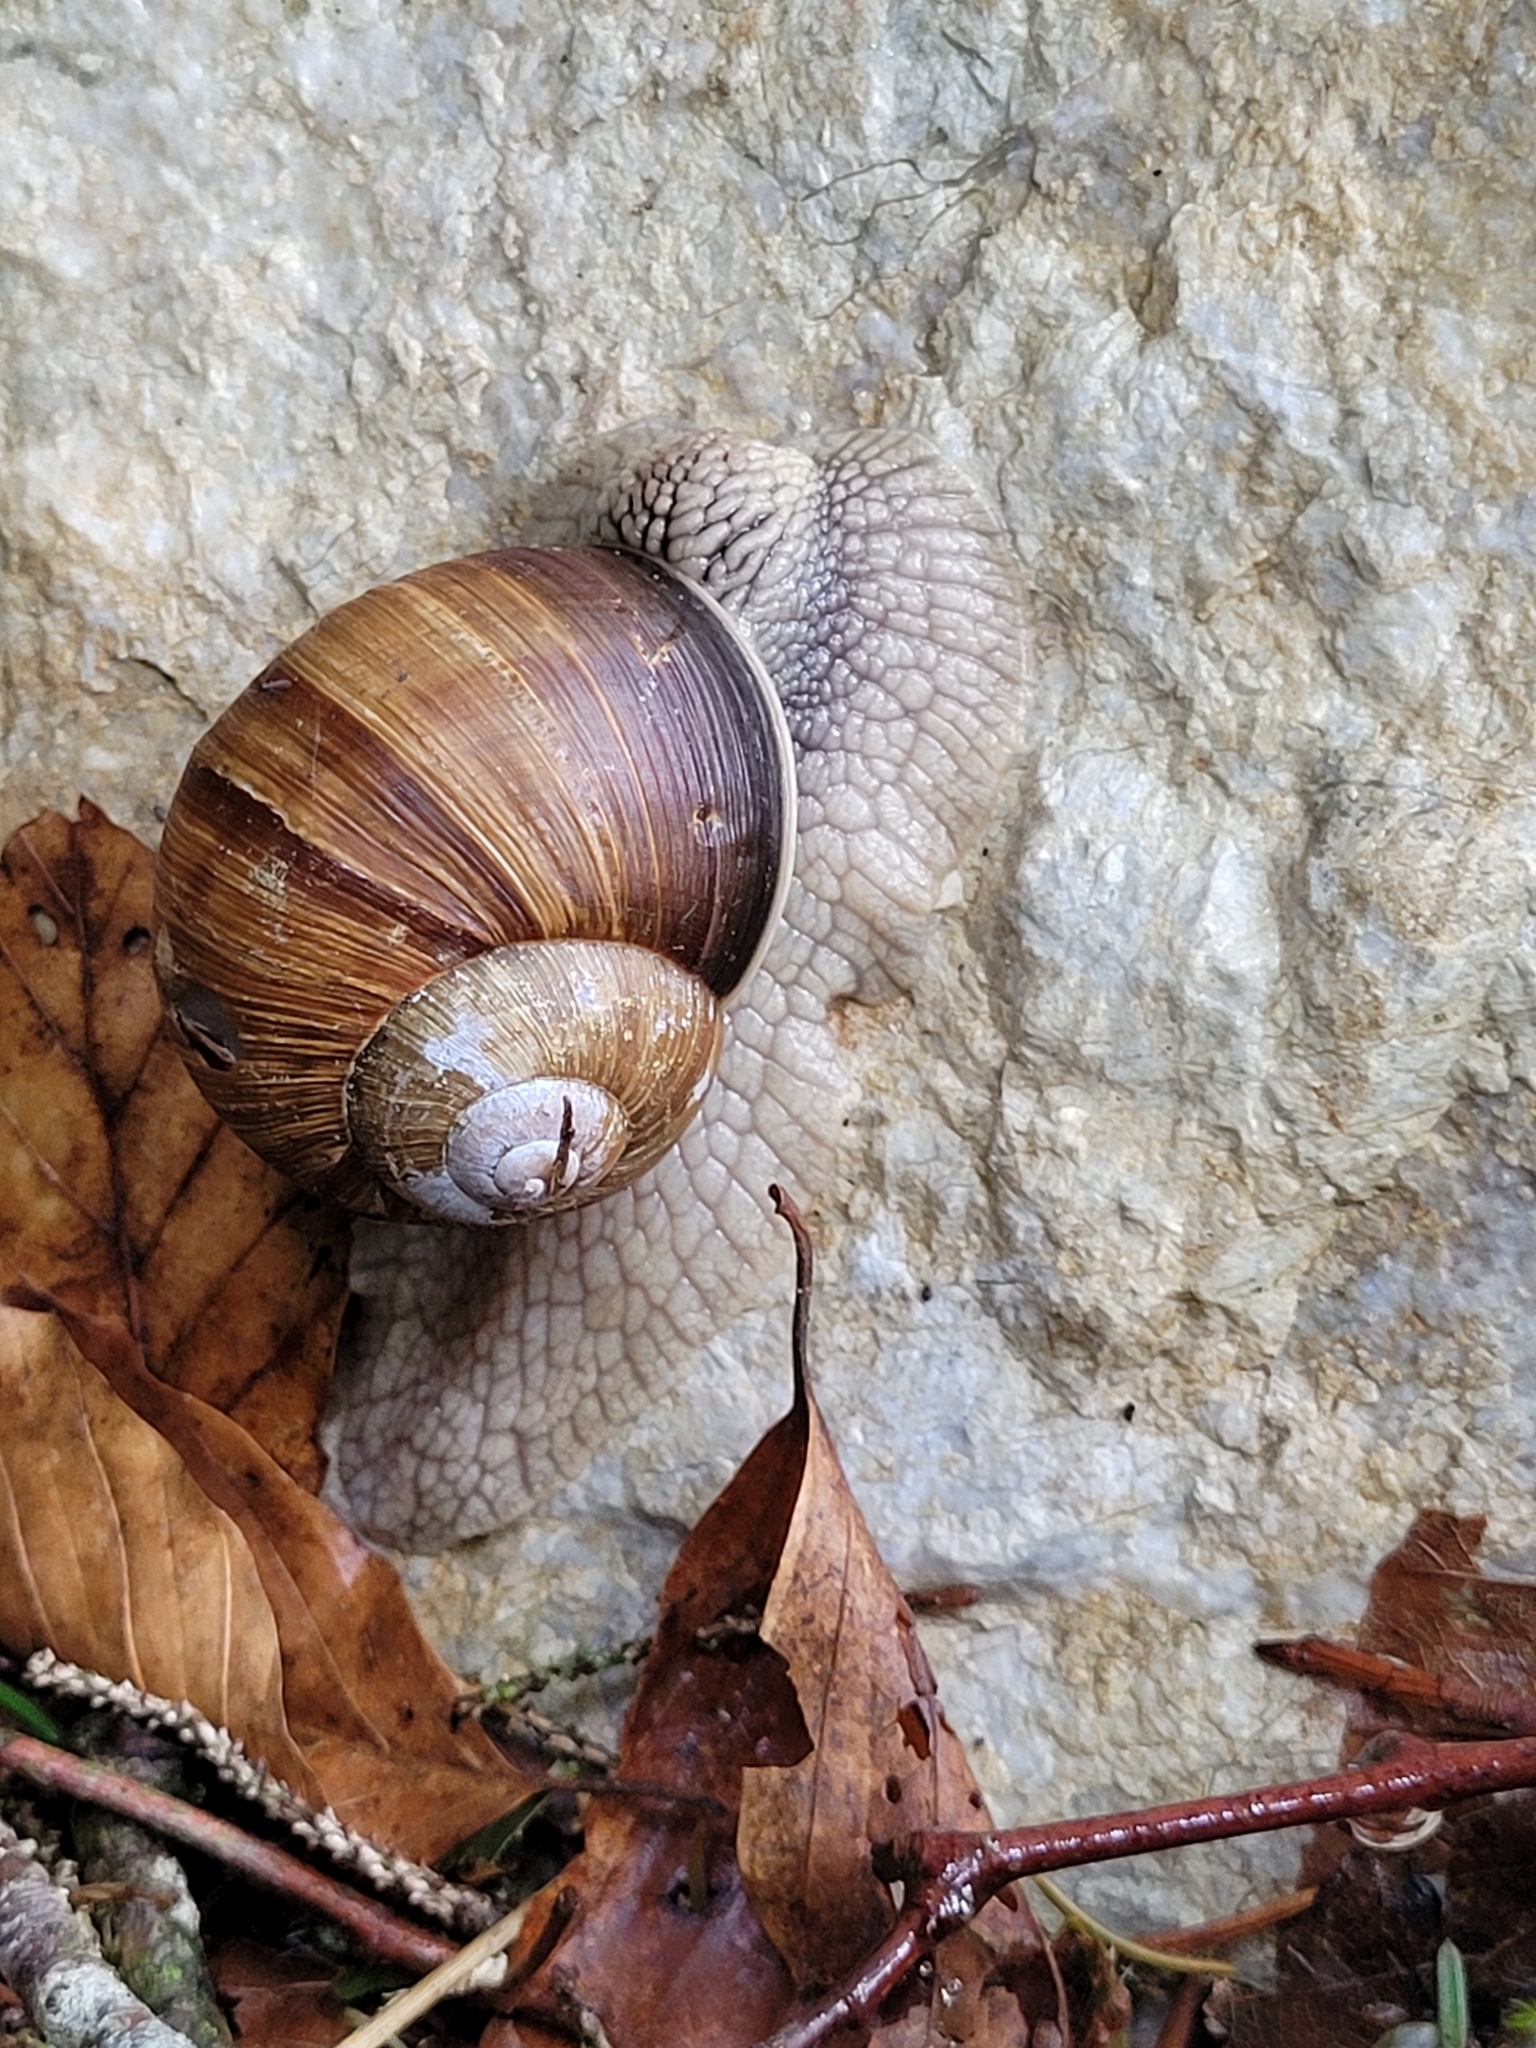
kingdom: Animalia
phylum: Mollusca
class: Gastropoda
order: Stylommatophora
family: Helicidae
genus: Helix
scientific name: Helix pomatia
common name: Roman snail
